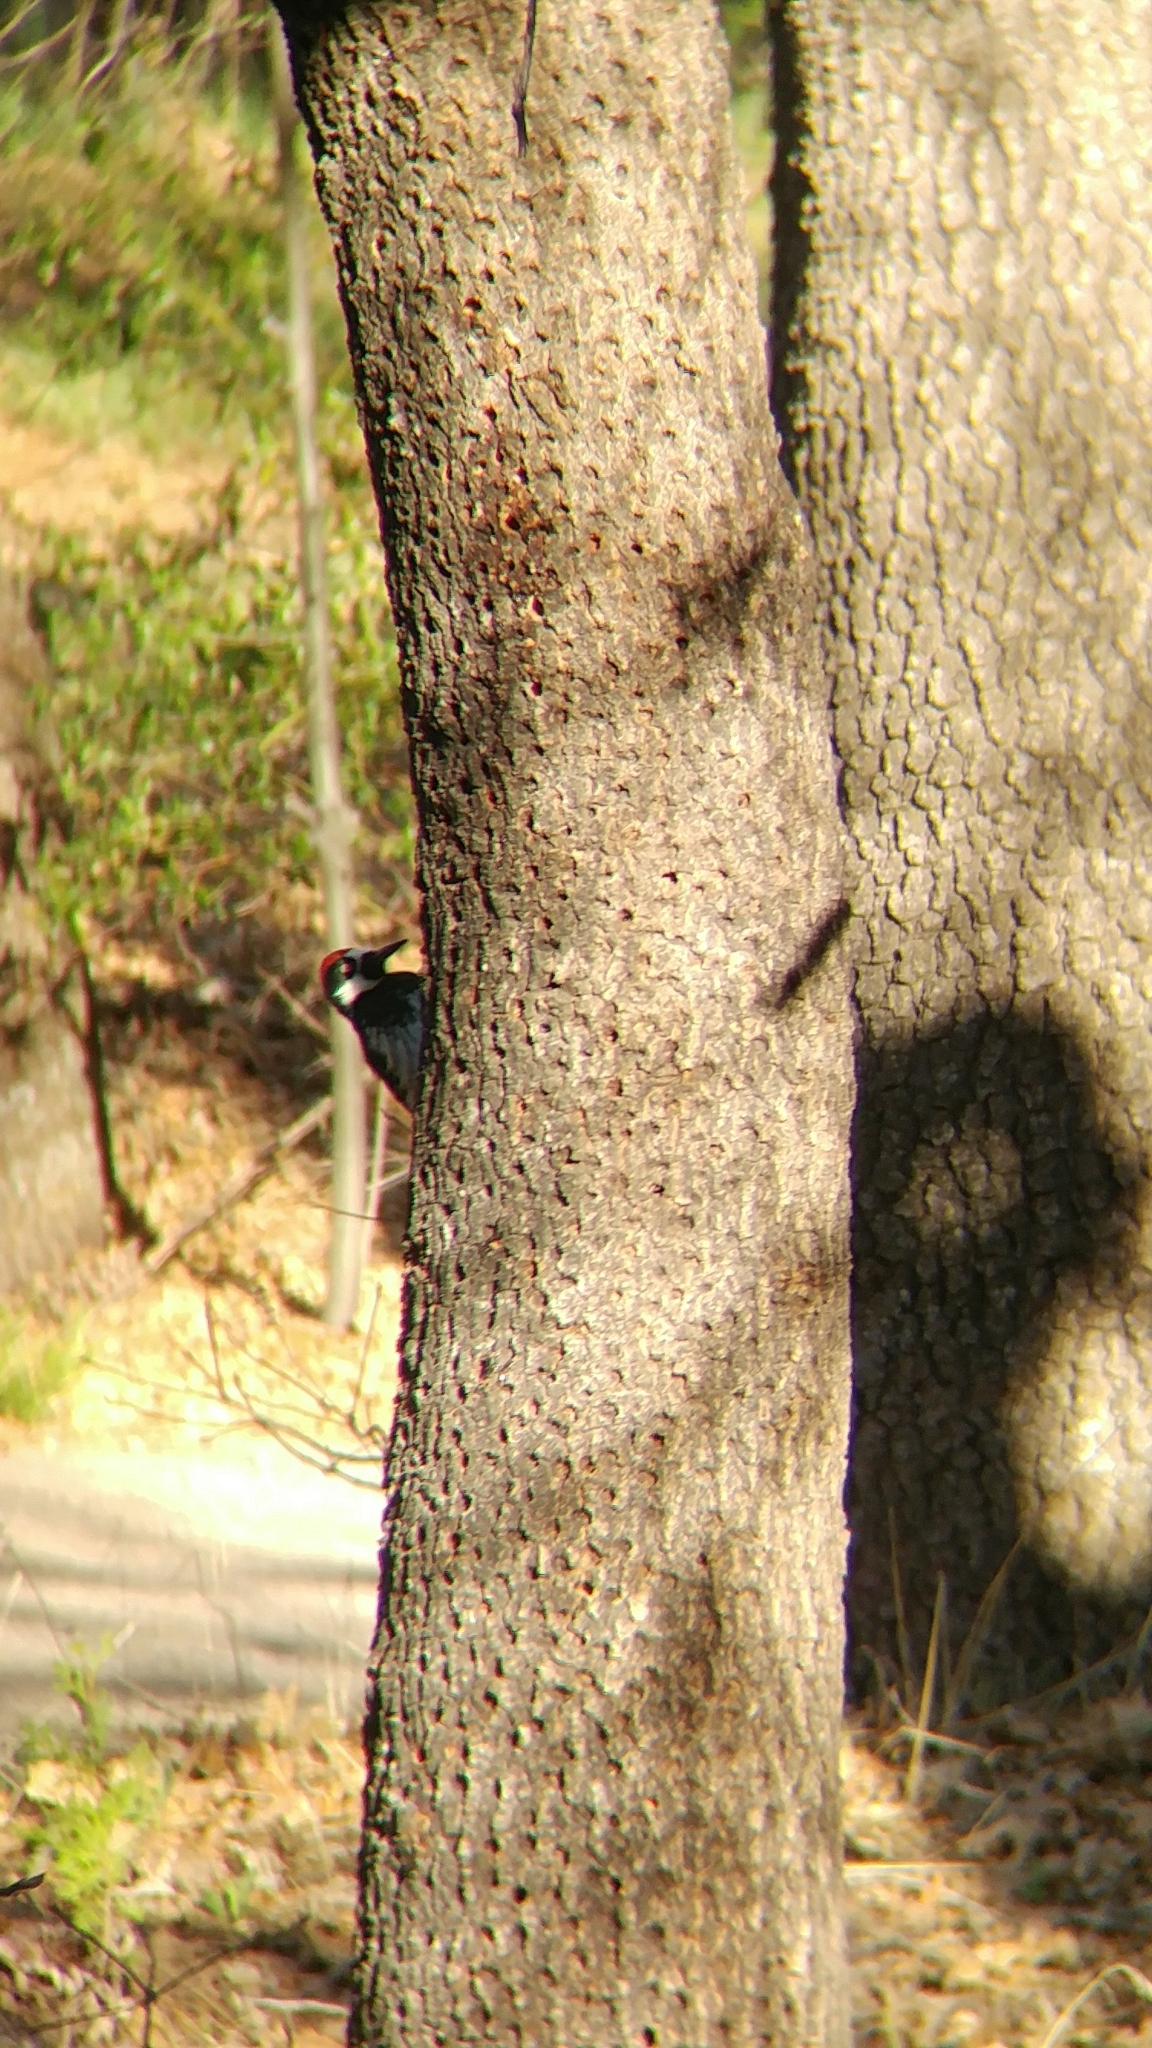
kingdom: Animalia
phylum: Chordata
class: Aves
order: Piciformes
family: Picidae
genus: Melanerpes
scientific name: Melanerpes formicivorus
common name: Acorn woodpecker
